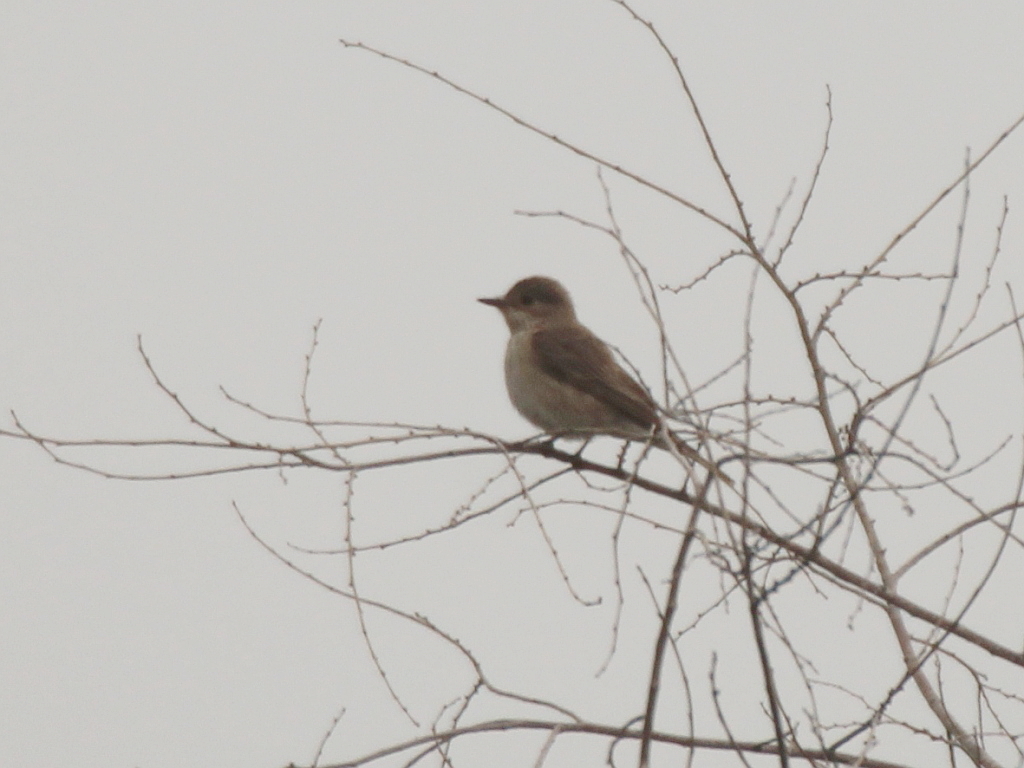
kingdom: Animalia
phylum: Chordata
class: Aves
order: Passeriformes
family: Muscicapidae
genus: Muscicapa
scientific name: Muscicapa striata
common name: Spotted flycatcher
